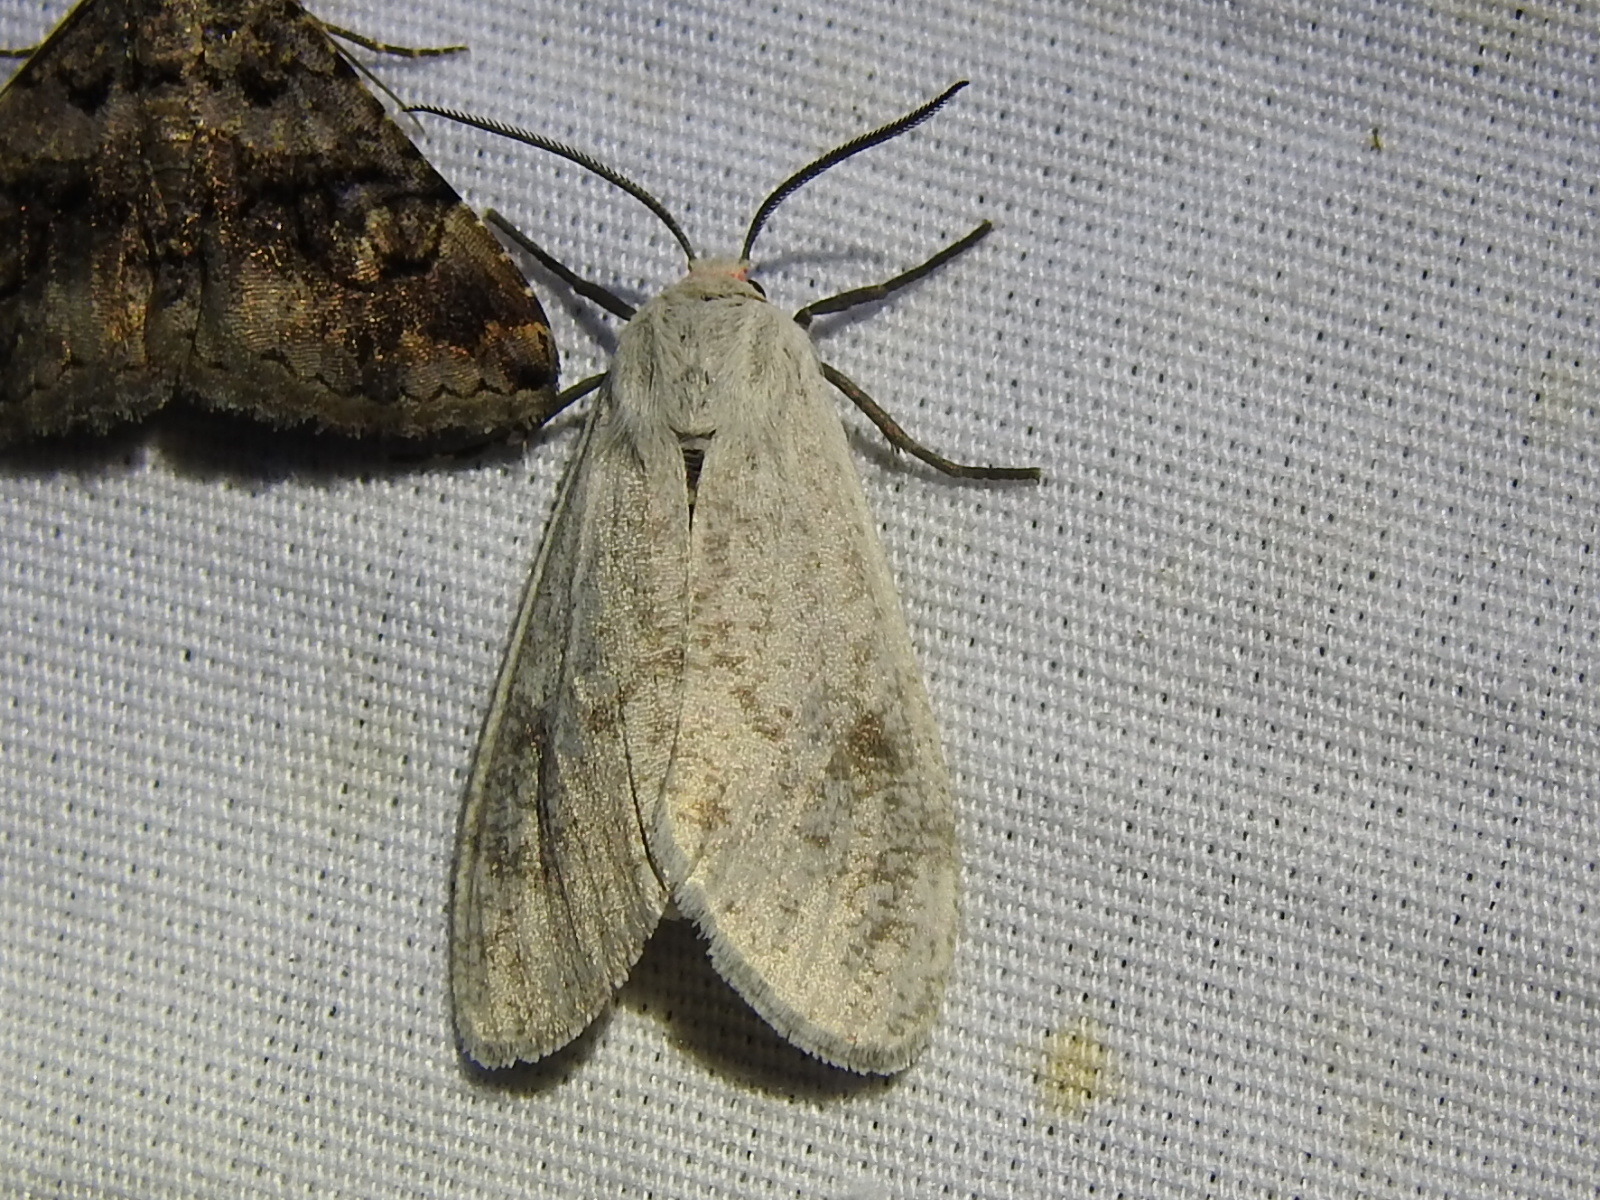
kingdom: Animalia
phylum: Arthropoda
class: Insecta
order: Lepidoptera
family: Erebidae
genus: Euchaetes
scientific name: Euchaetes bolteri
